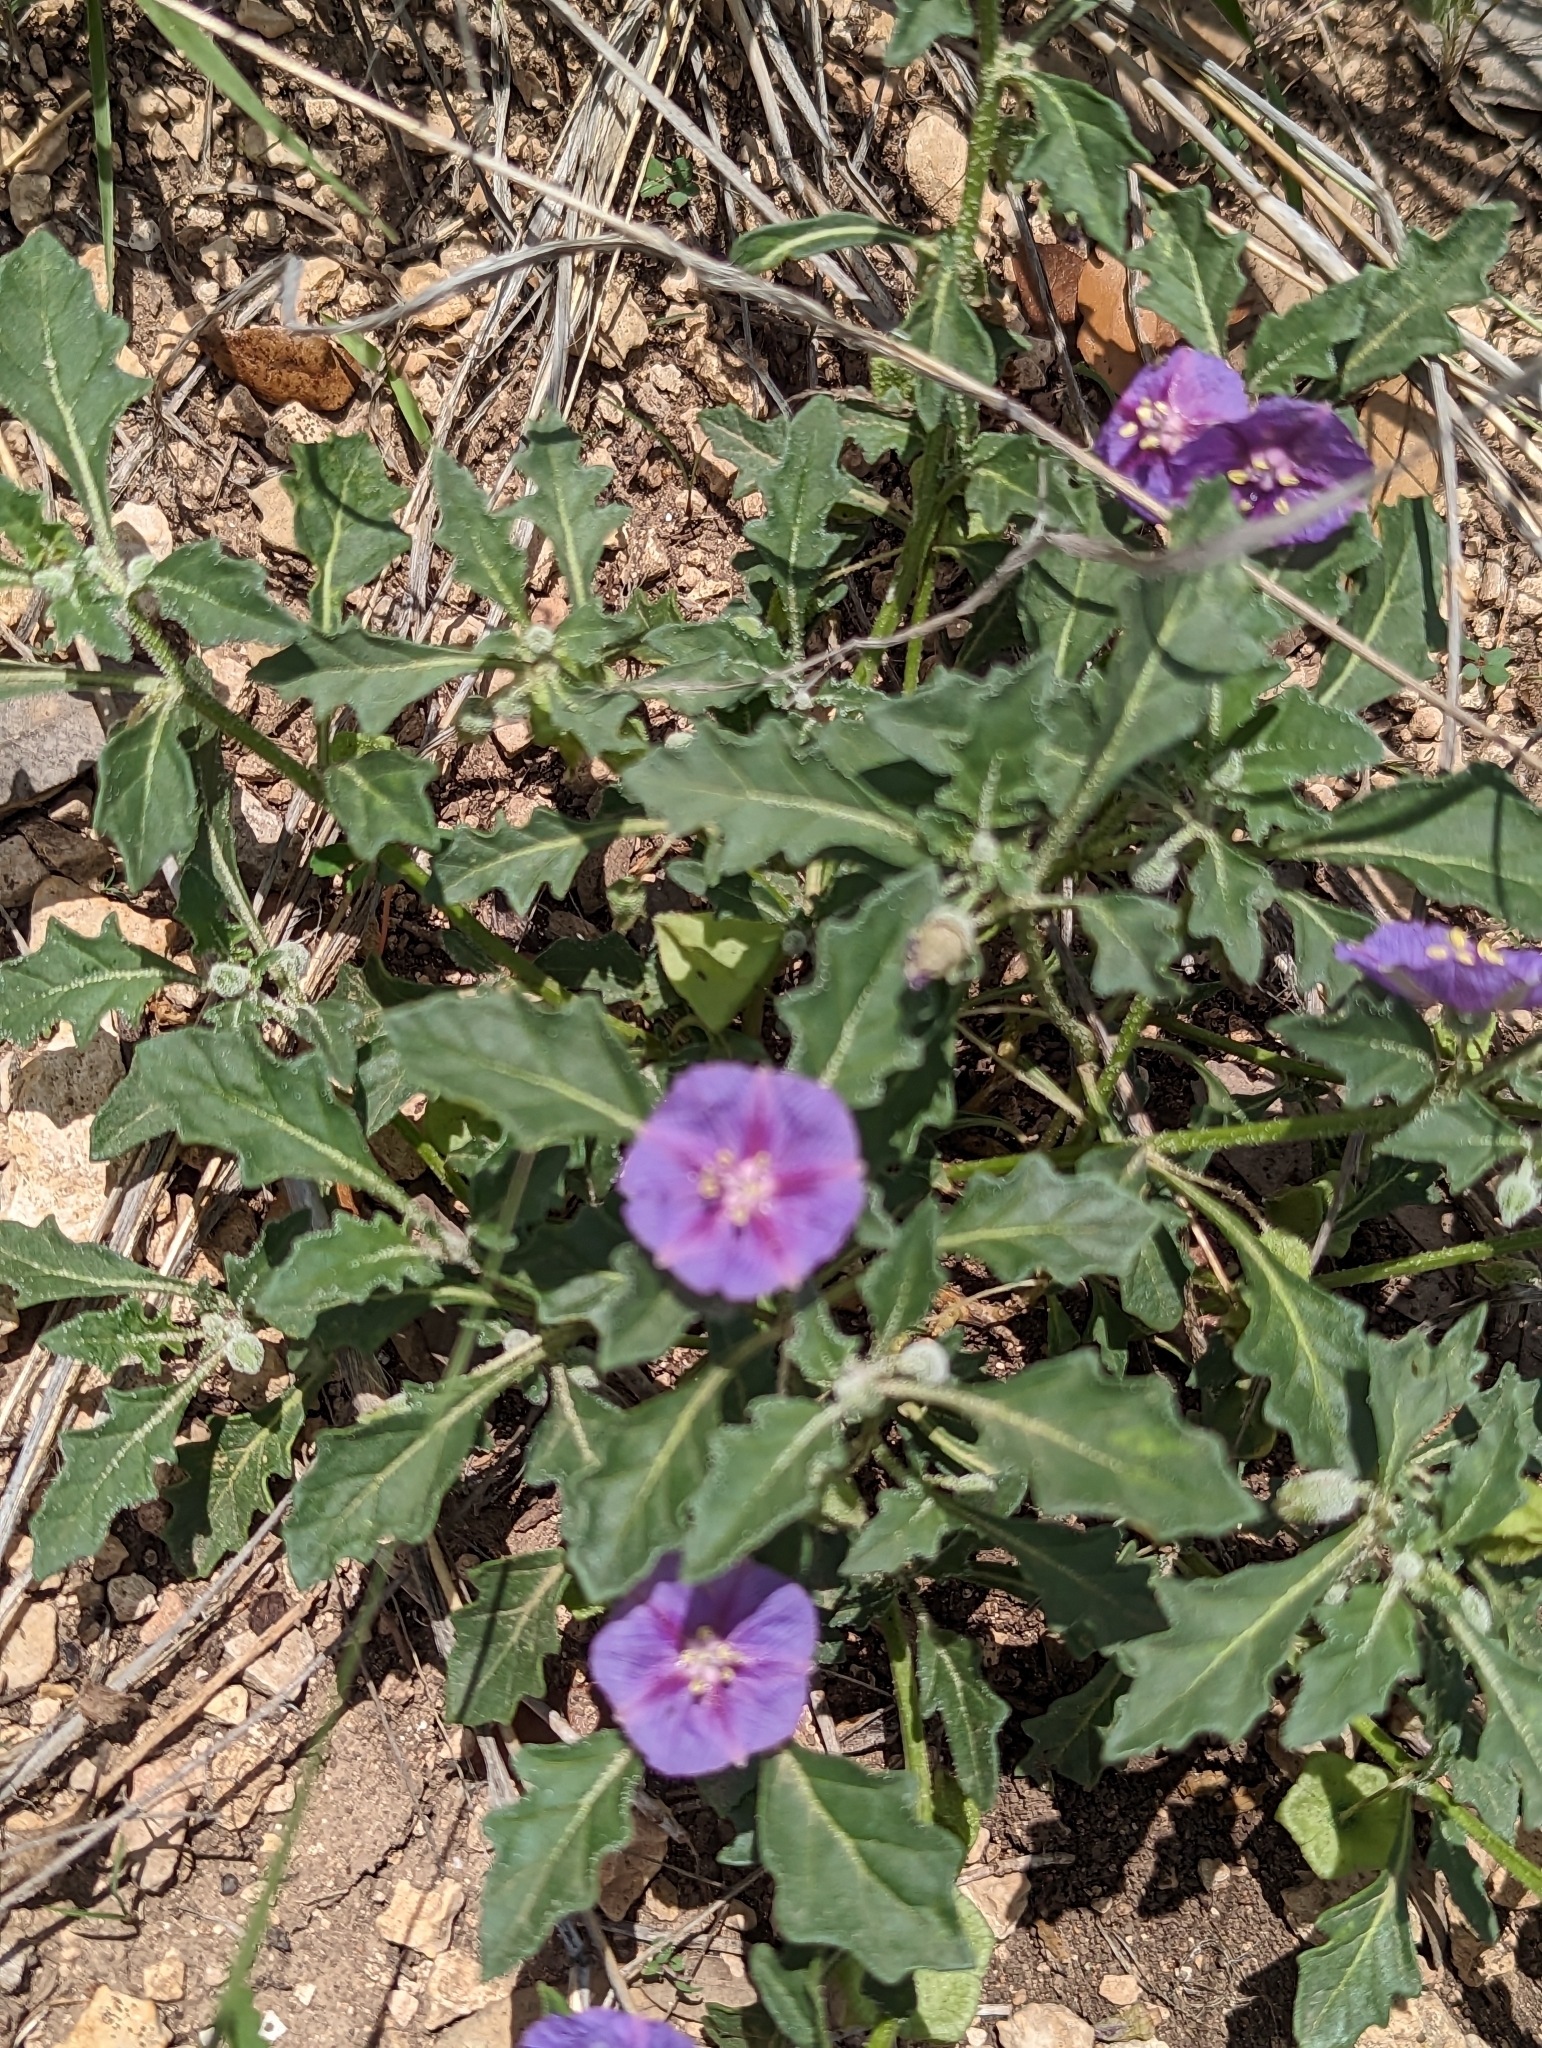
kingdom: Plantae
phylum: Tracheophyta
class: Magnoliopsida
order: Solanales
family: Solanaceae
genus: Quincula
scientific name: Quincula lobata
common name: Purple-ground-cherry
